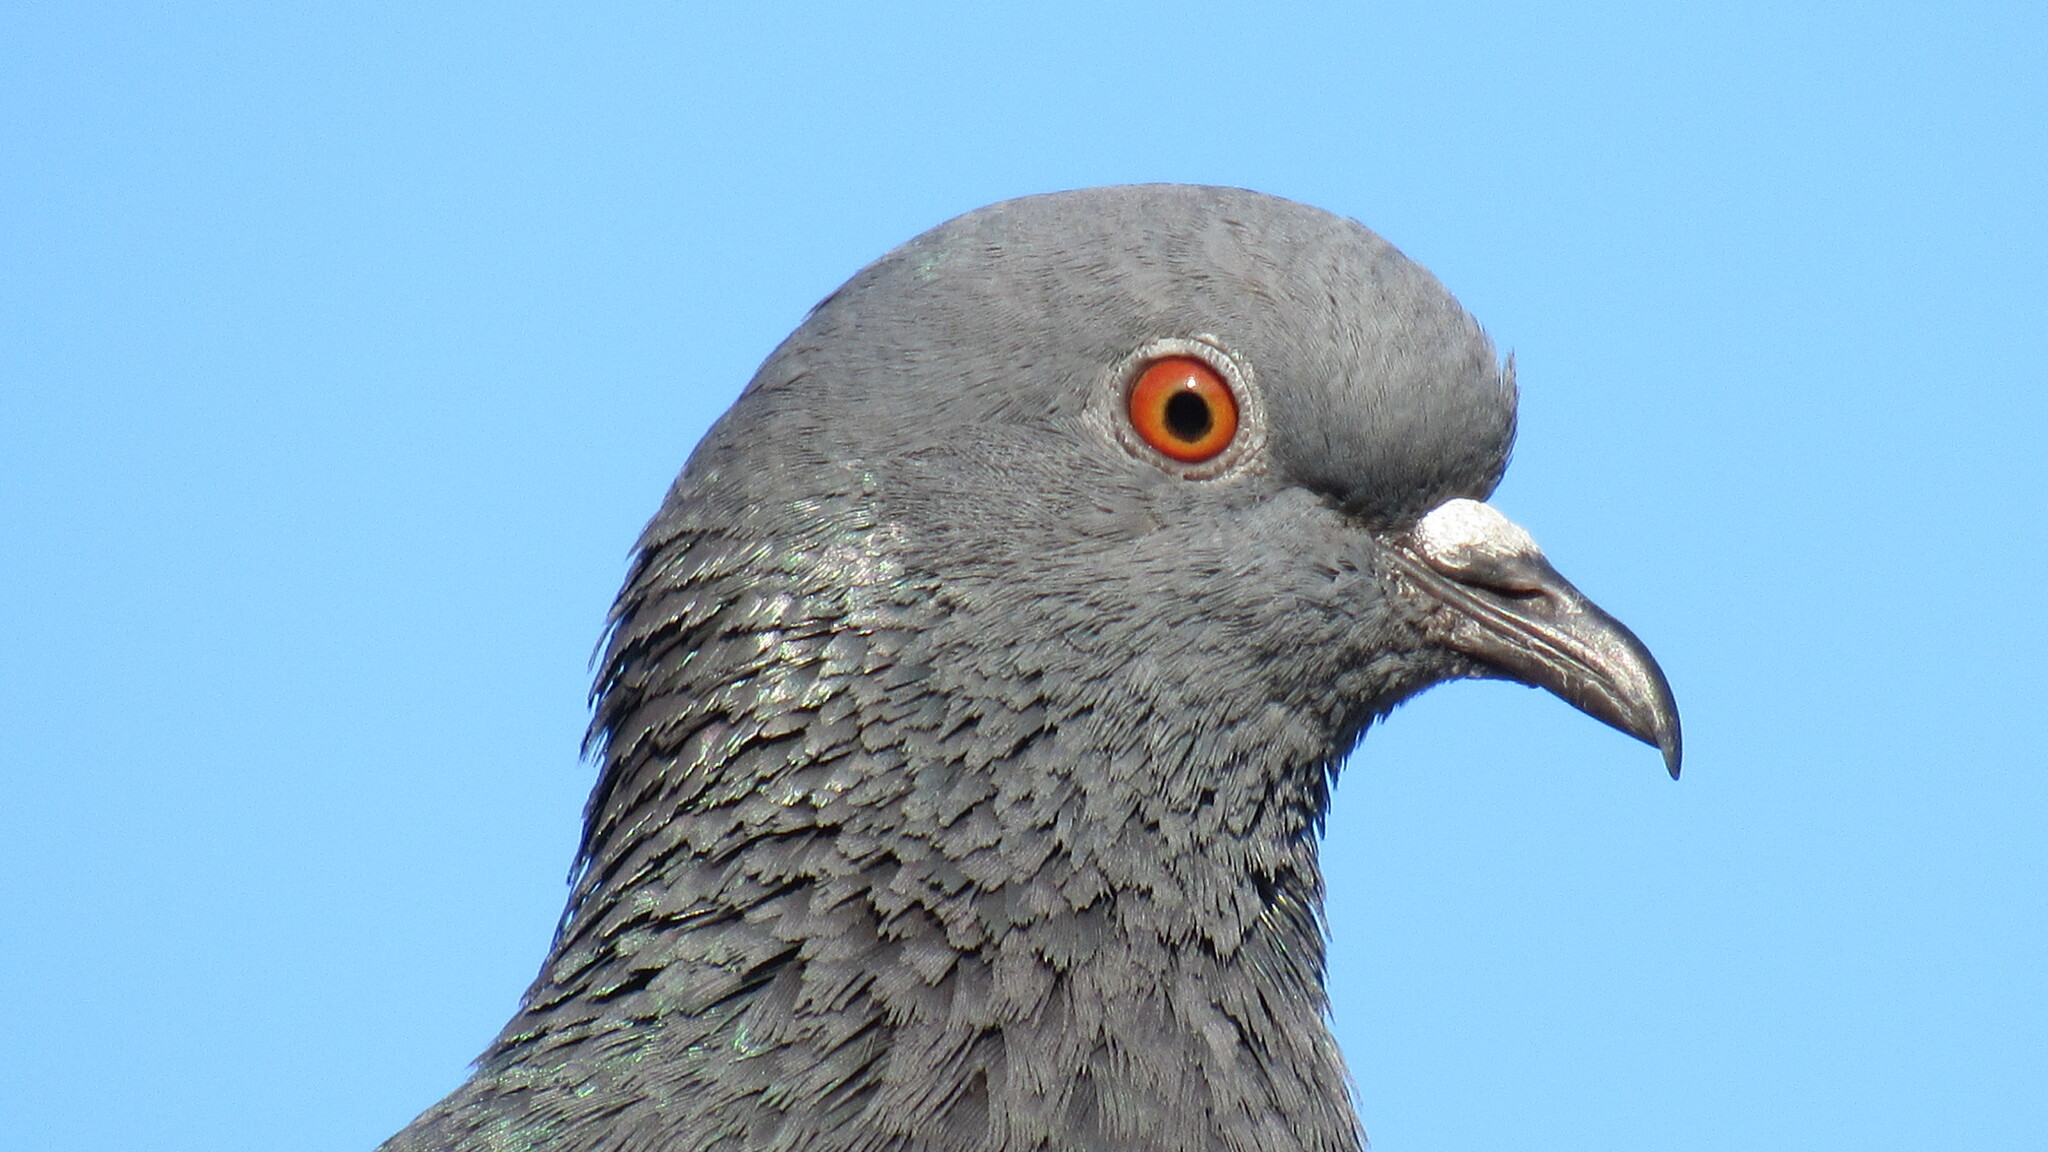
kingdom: Animalia
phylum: Chordata
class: Aves
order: Columbiformes
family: Columbidae
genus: Columba
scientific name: Columba livia
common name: Rock pigeon
